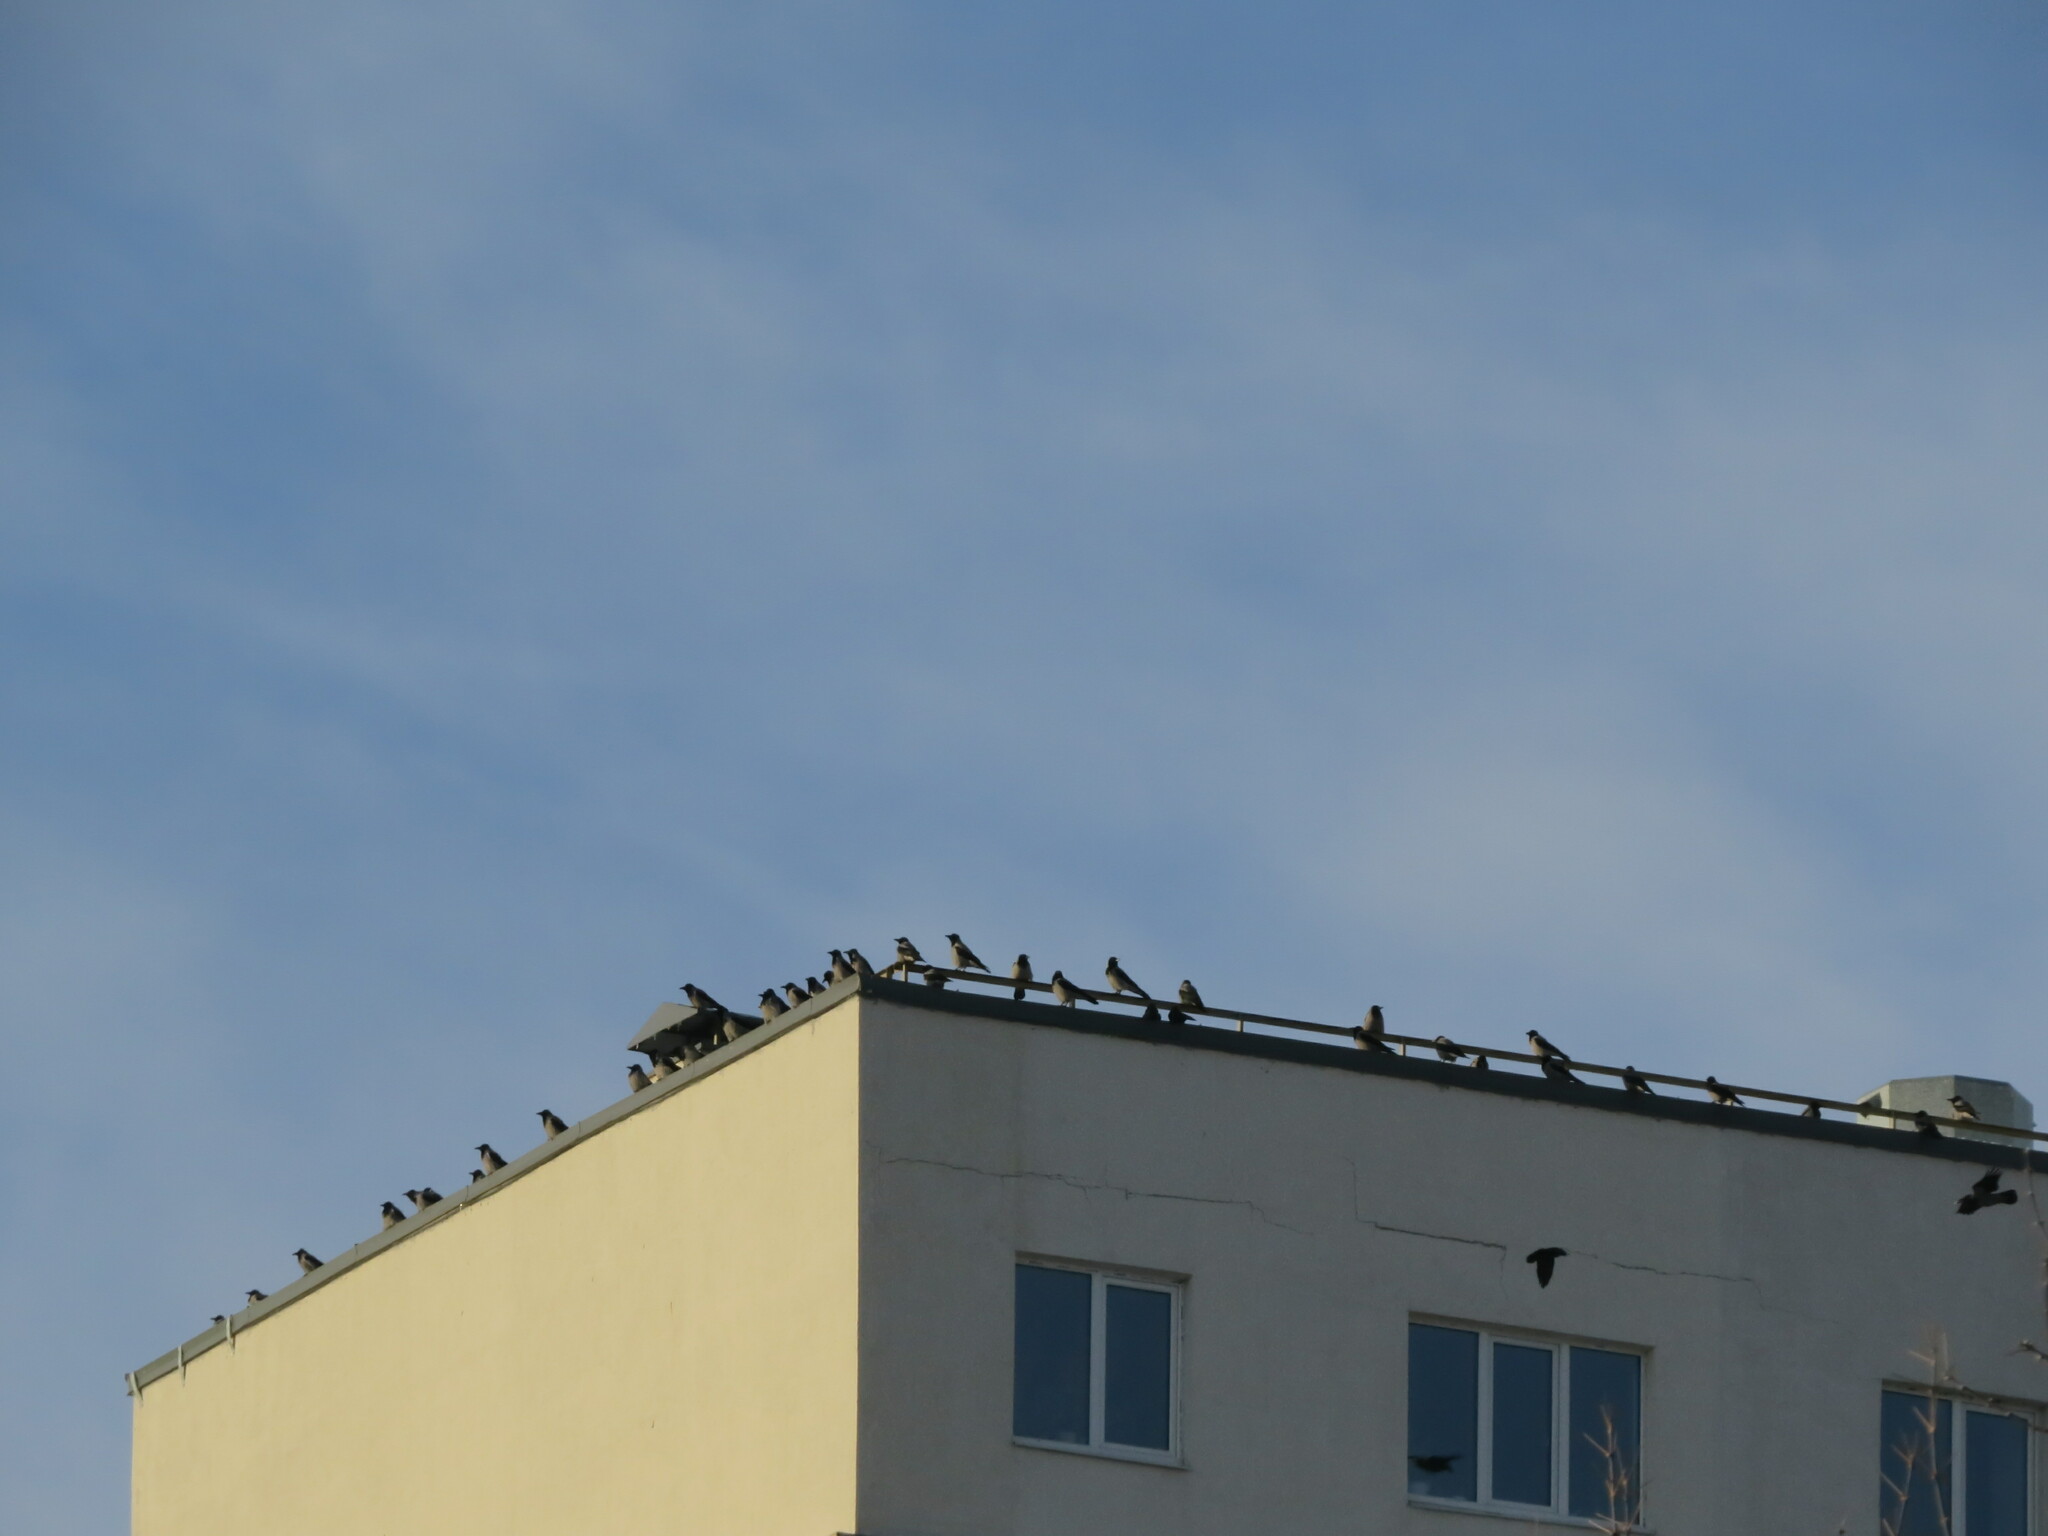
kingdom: Animalia
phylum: Chordata
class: Aves
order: Passeriformes
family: Corvidae
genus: Corvus
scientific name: Corvus cornix
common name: Hooded crow
